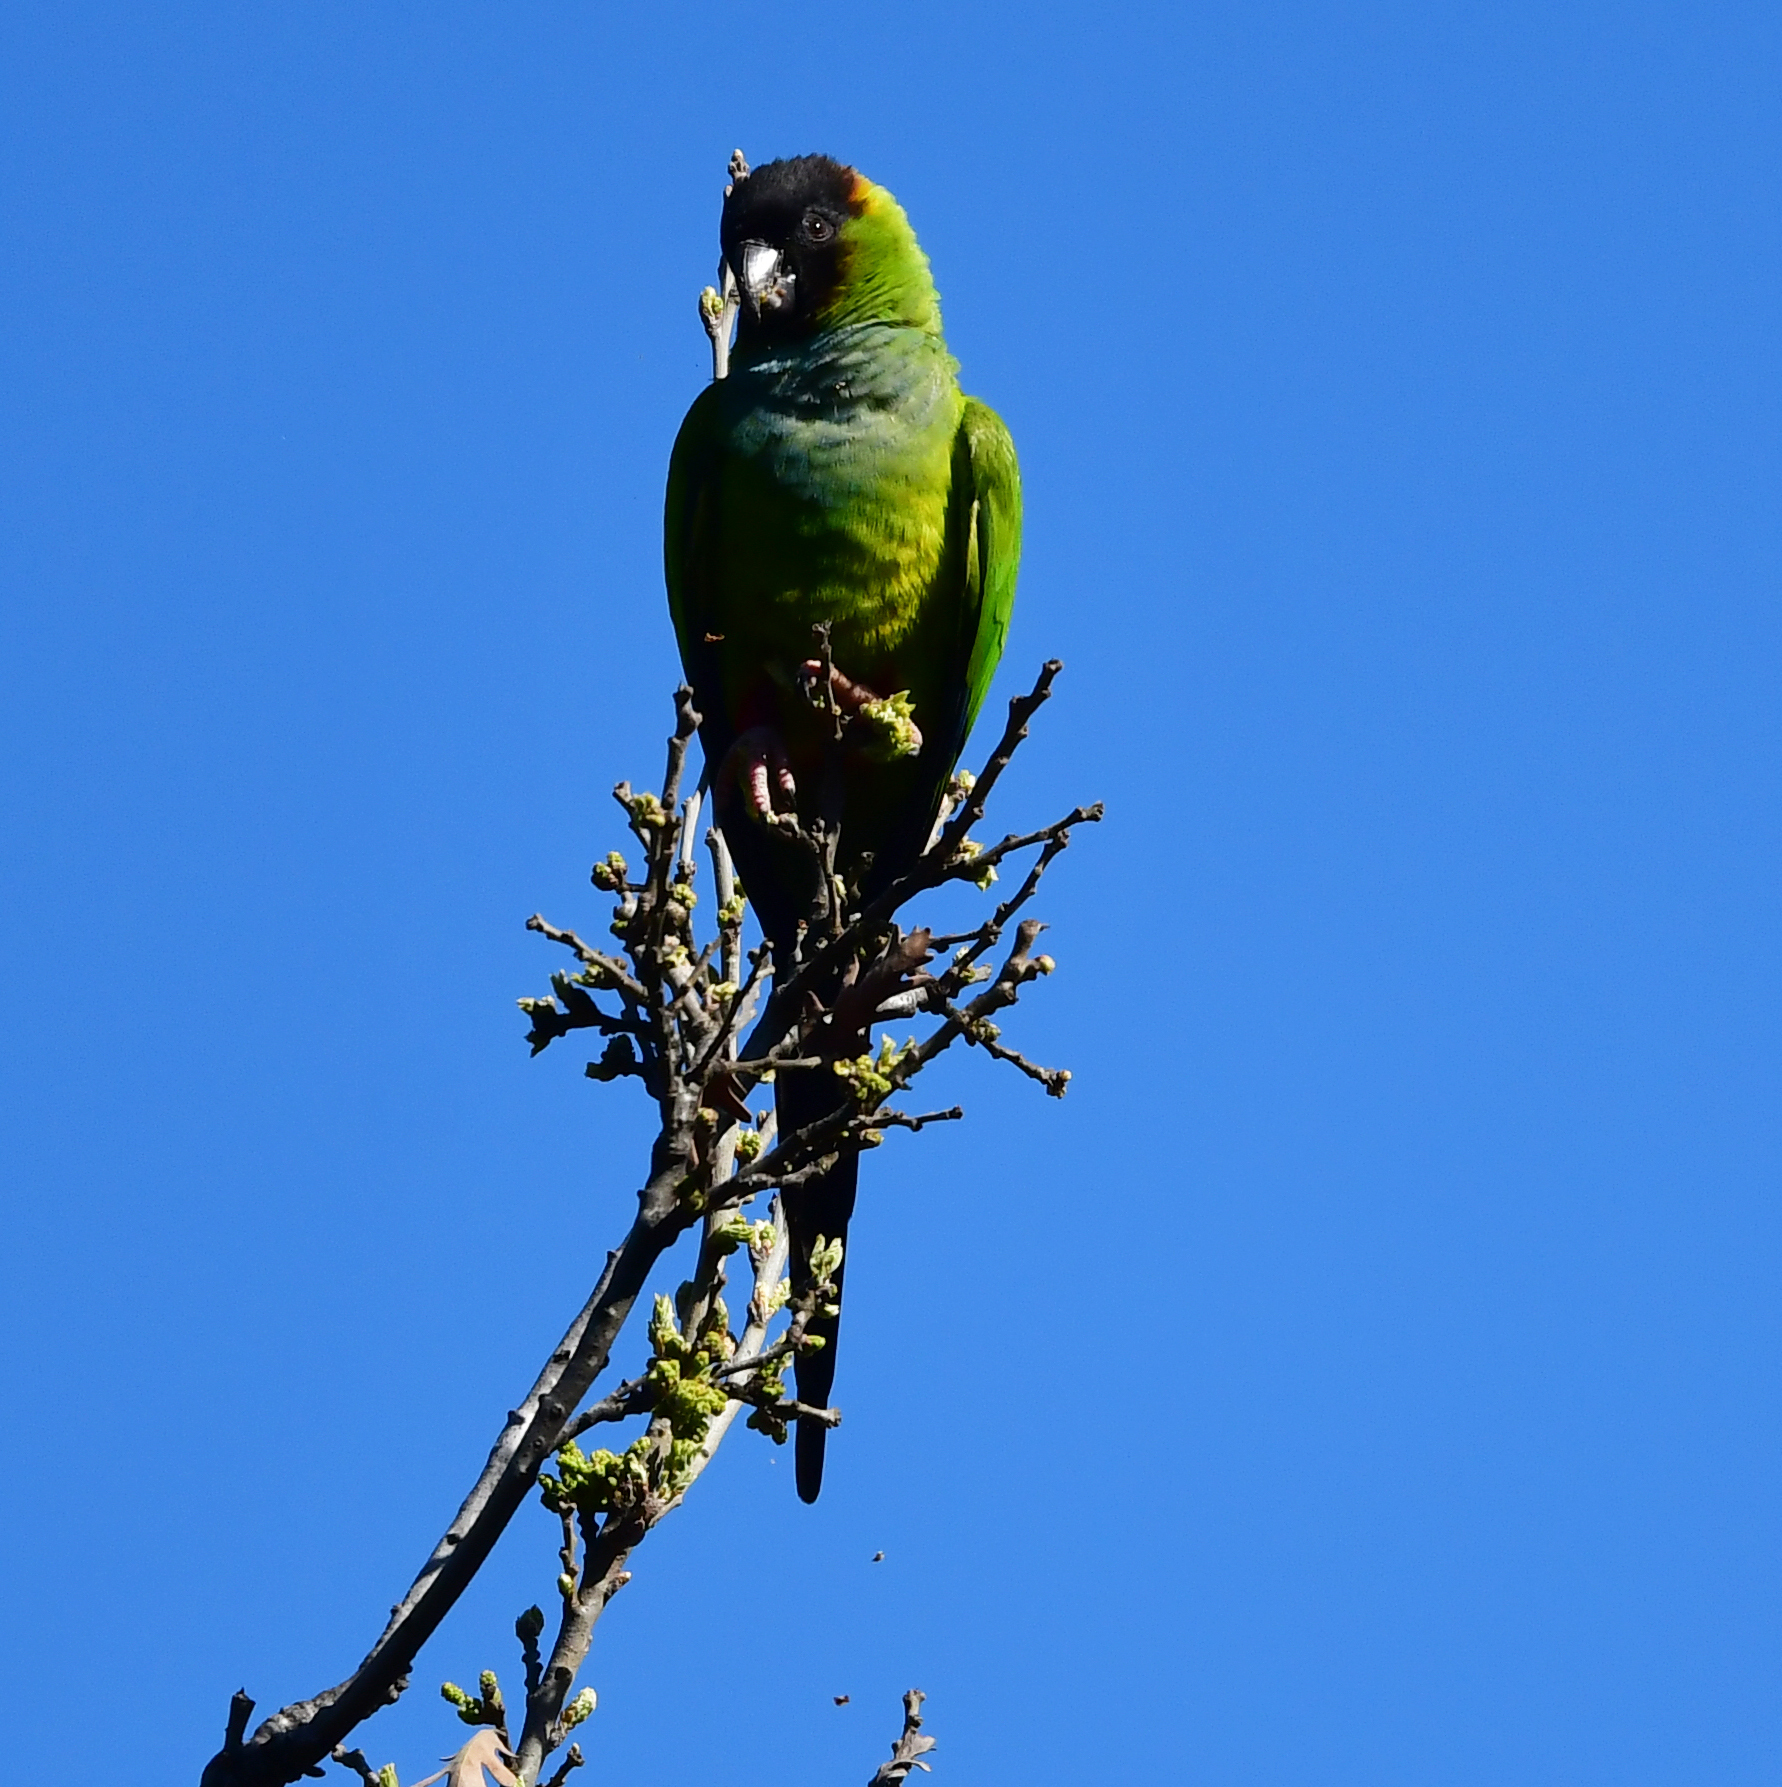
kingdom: Animalia
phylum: Chordata
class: Aves
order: Psittaciformes
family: Psittacidae
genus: Nandayus
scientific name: Nandayus nenday
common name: Nanday parakeet
